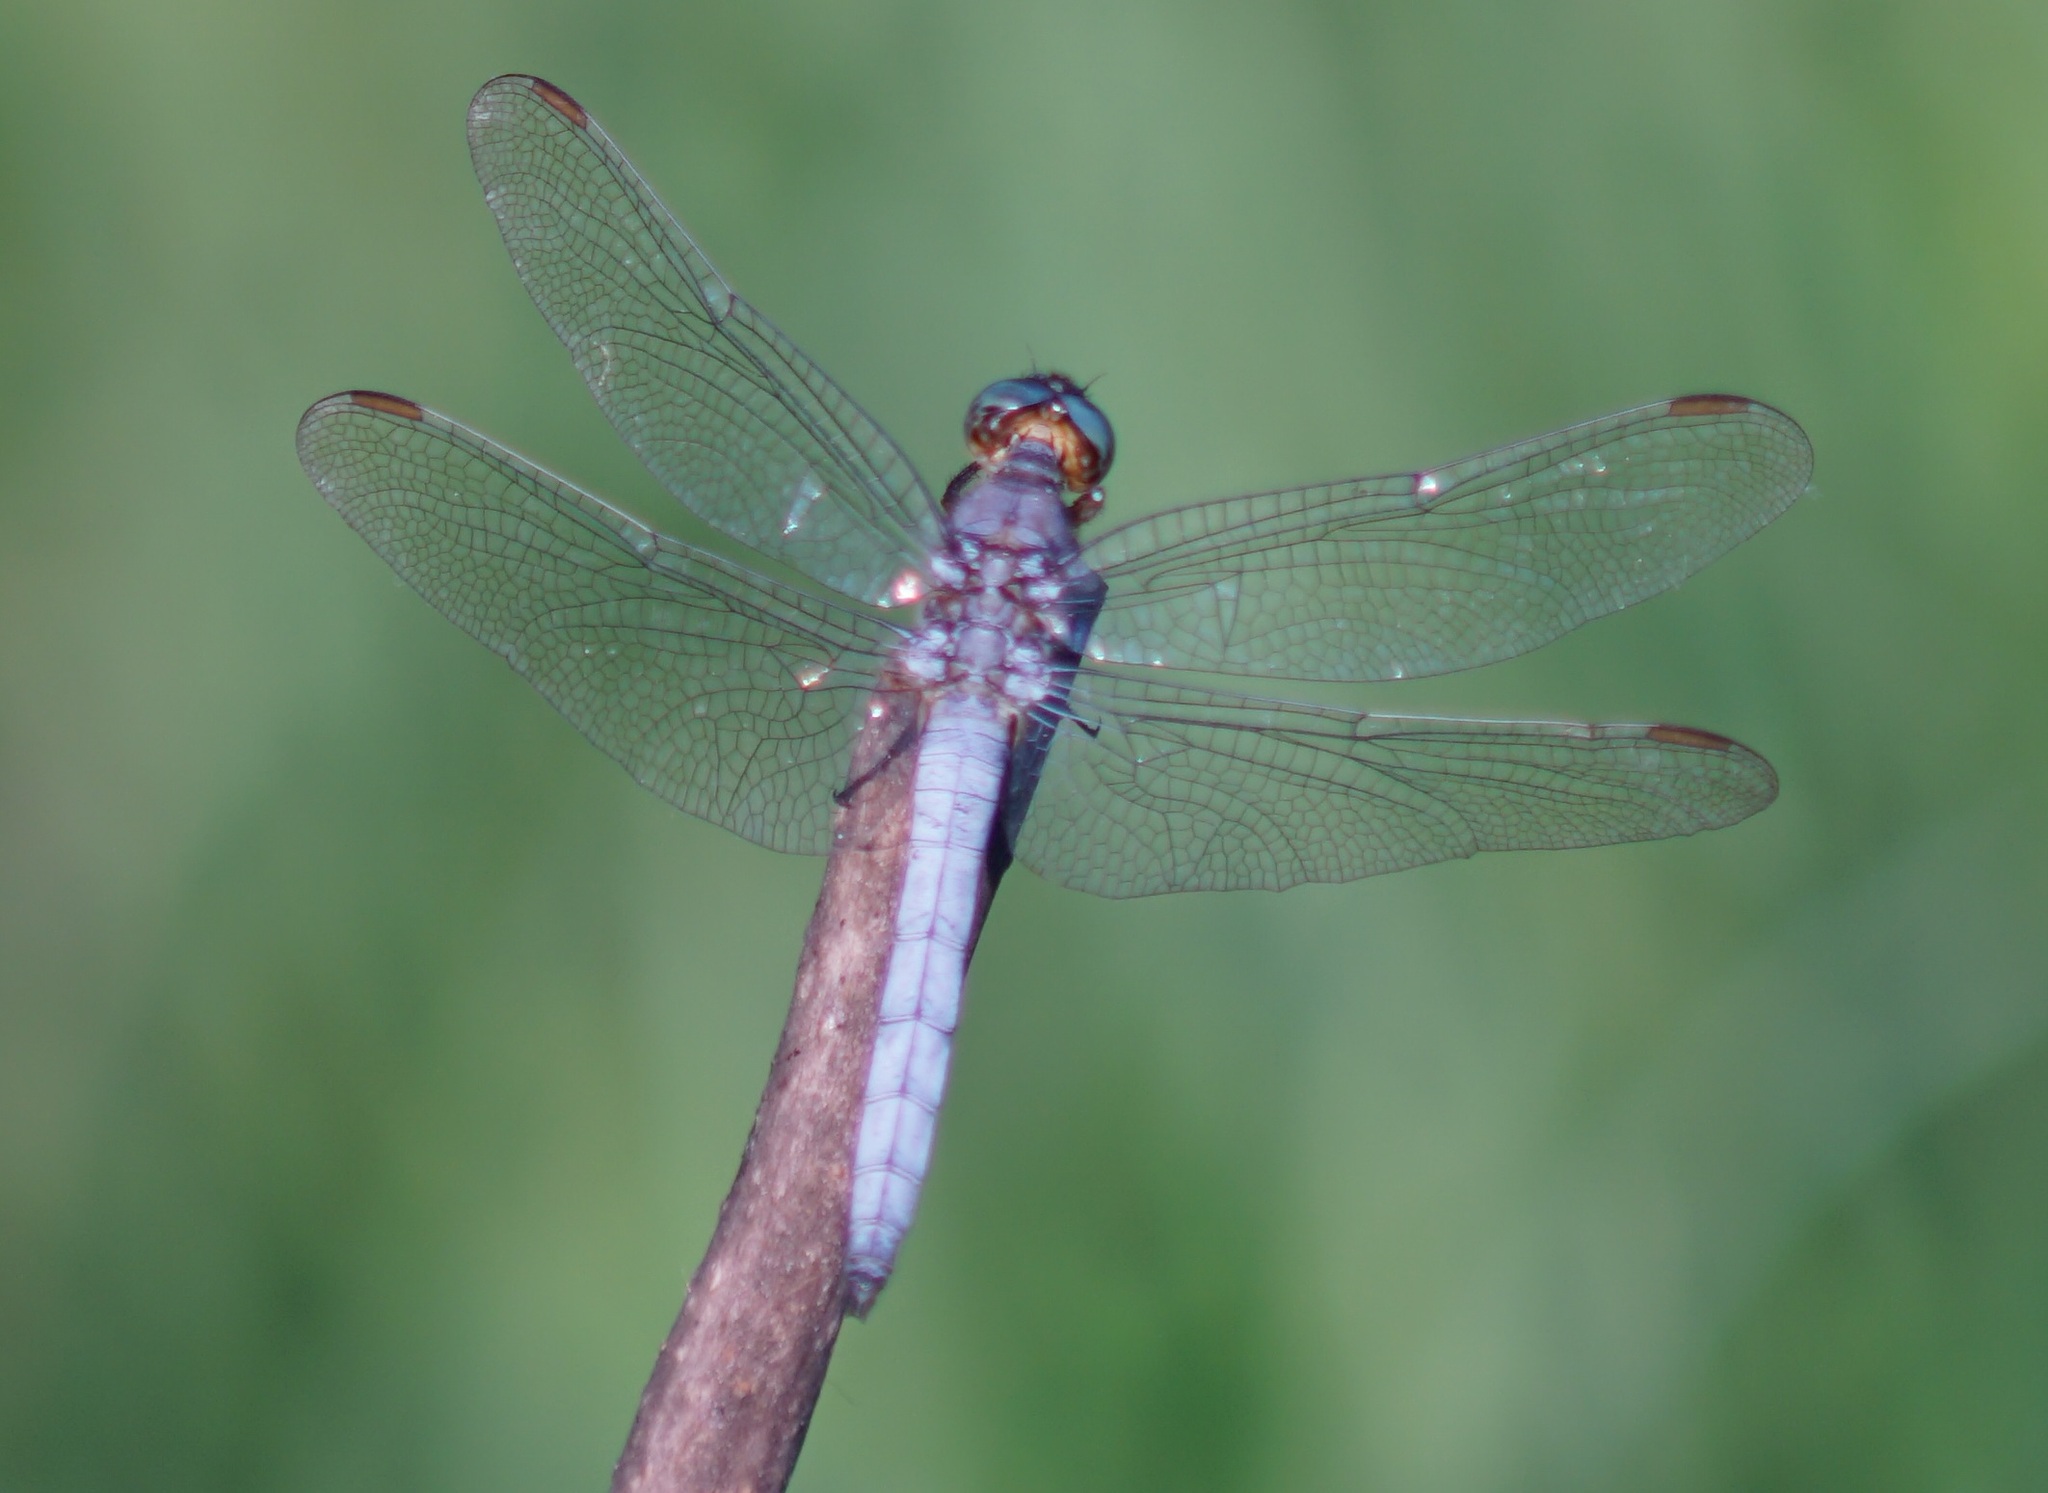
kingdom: Animalia
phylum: Arthropoda
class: Insecta
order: Odonata
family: Libellulidae
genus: Orthetrum
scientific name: Orthetrum coerulescens
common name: Keeled skimmer
